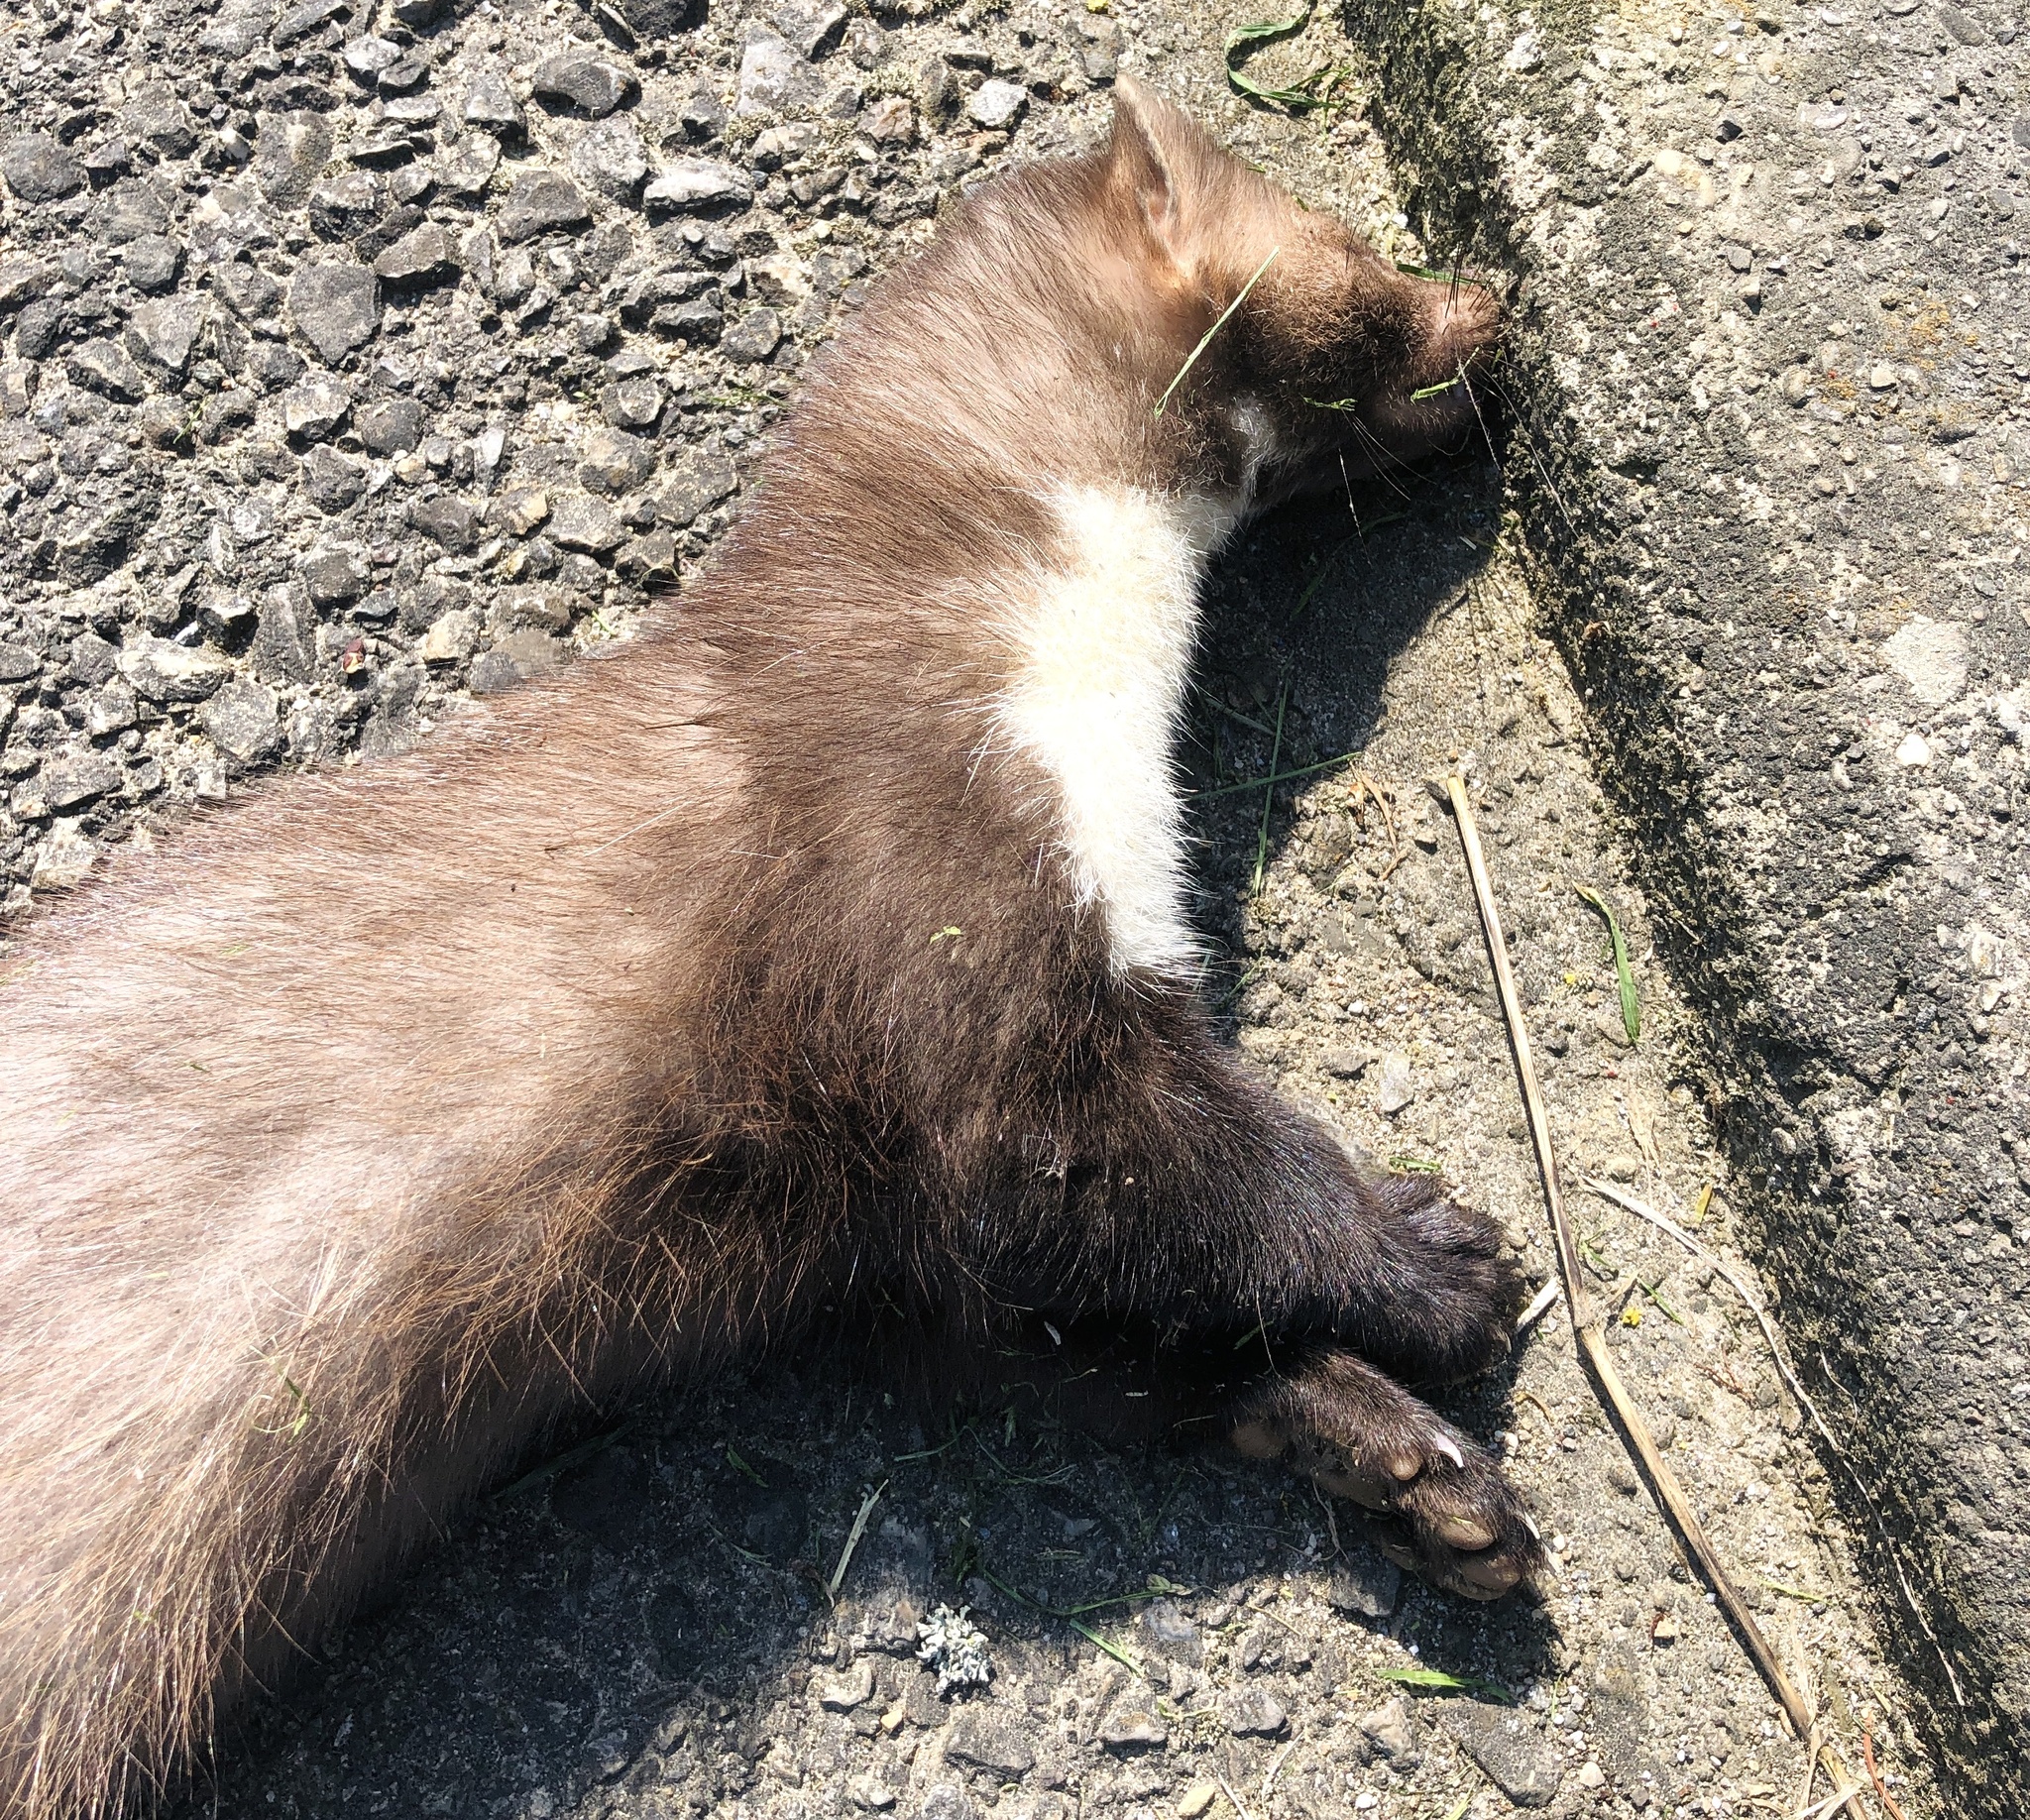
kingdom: Animalia
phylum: Chordata
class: Mammalia
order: Carnivora
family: Mustelidae
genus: Martes
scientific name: Martes foina
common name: Beech marten
